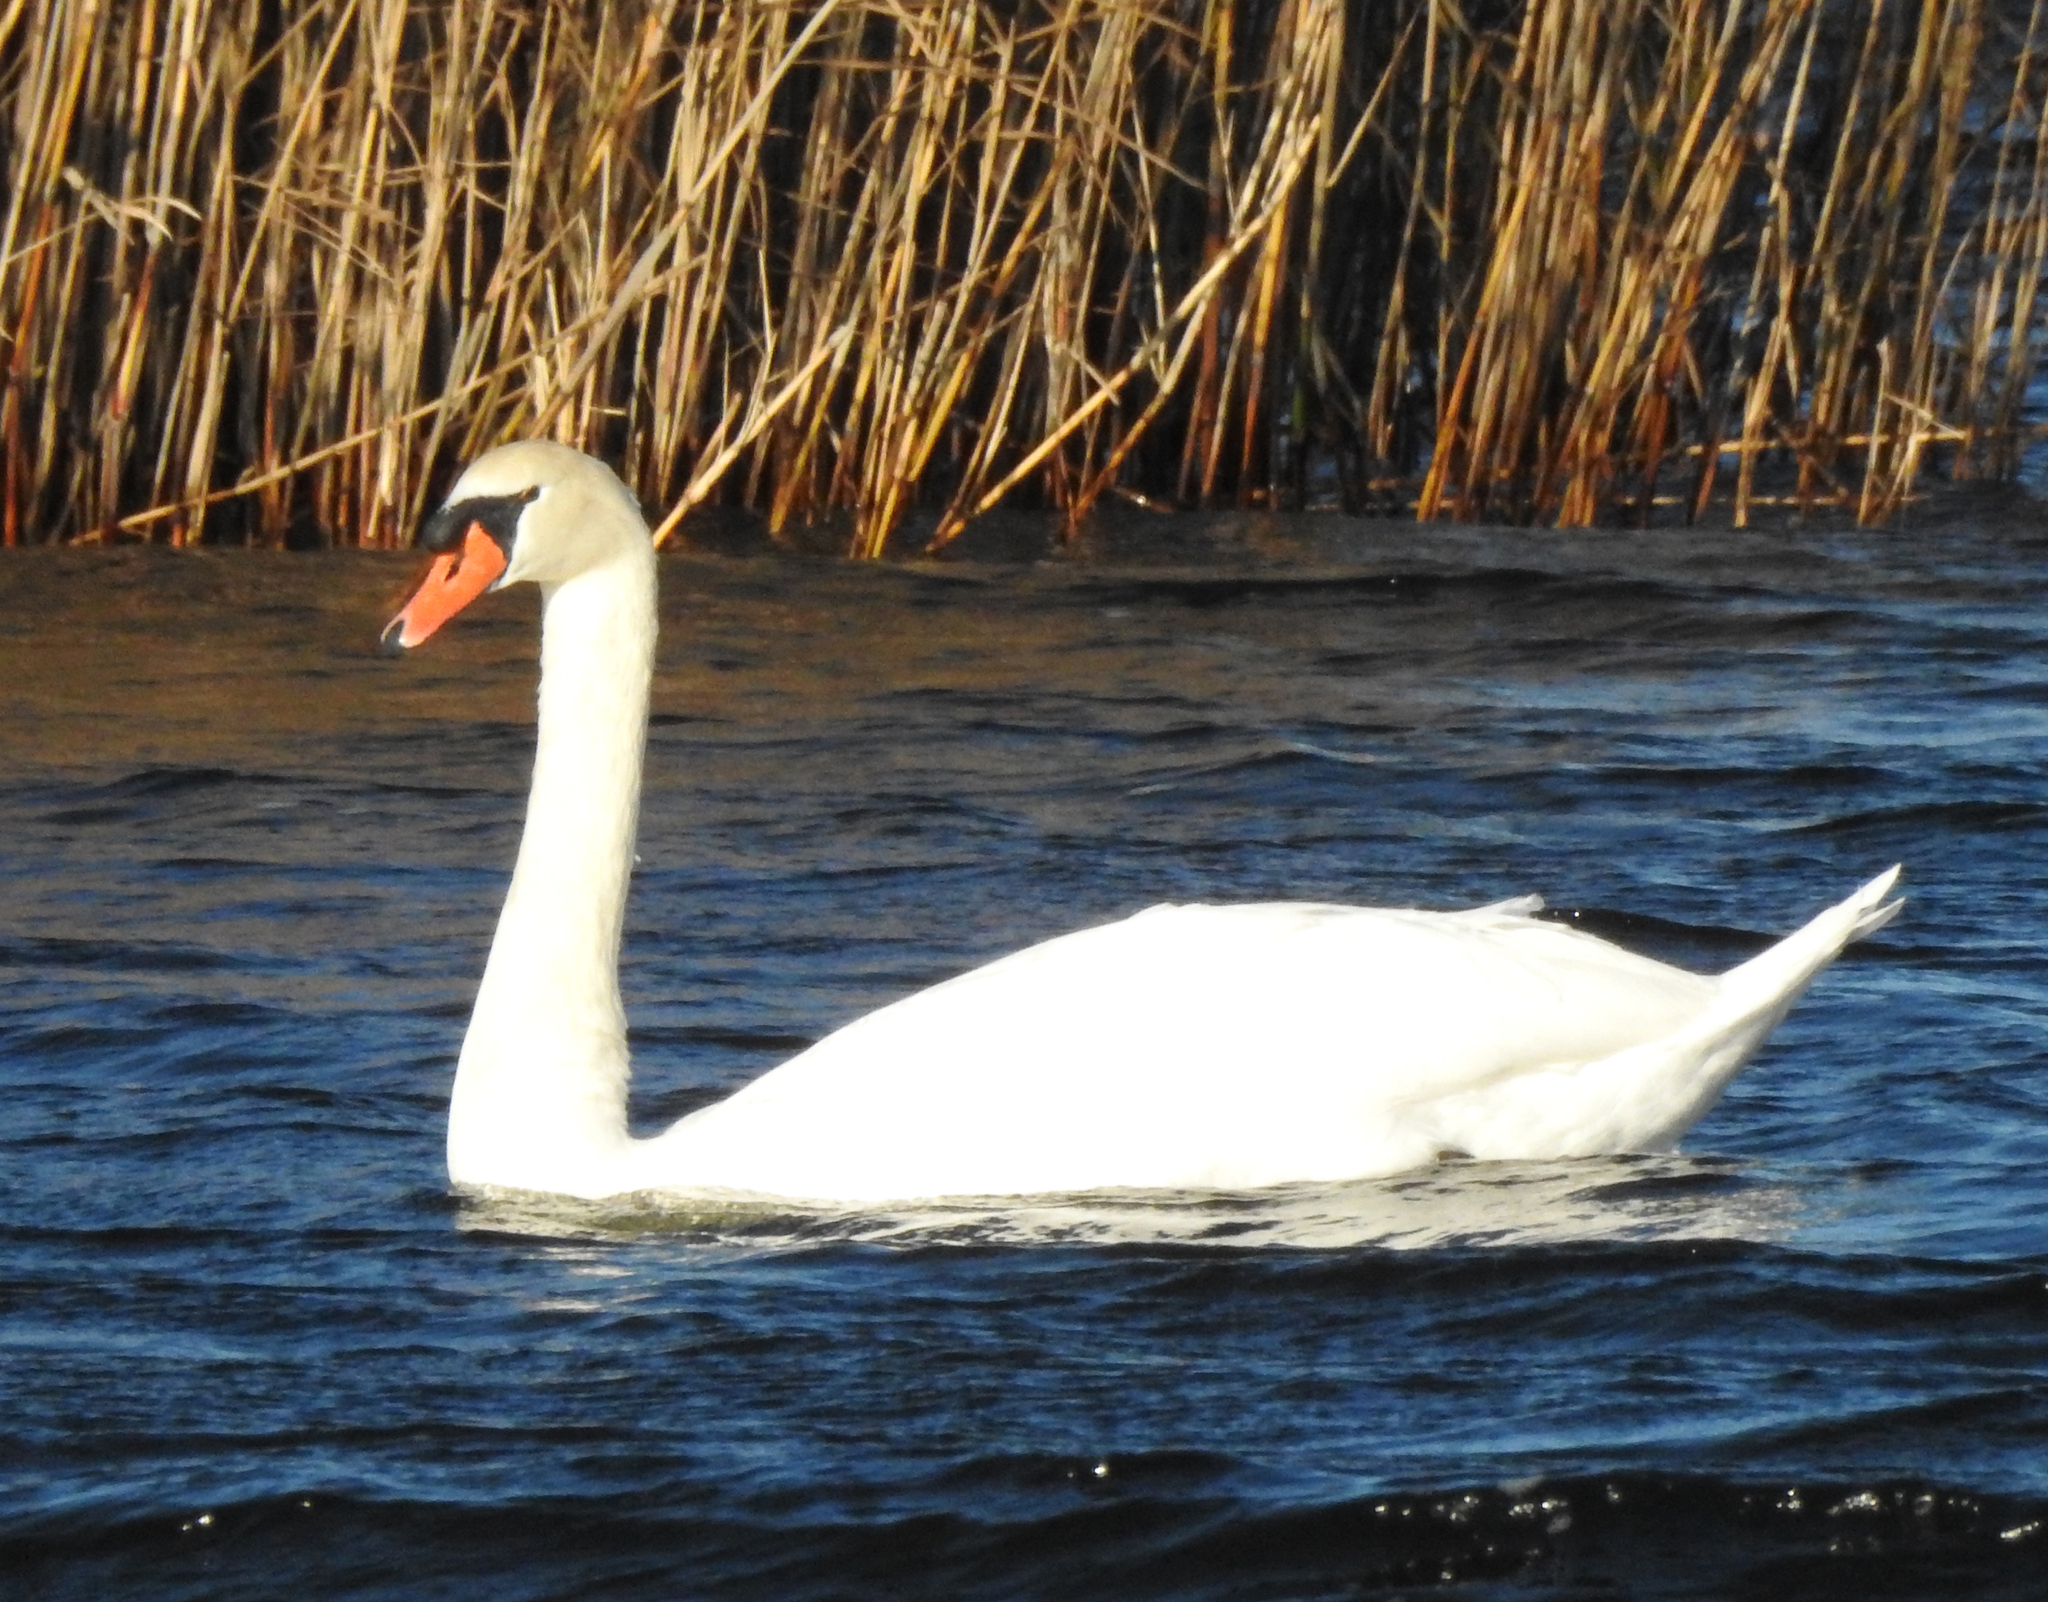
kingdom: Animalia
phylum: Chordata
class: Aves
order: Anseriformes
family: Anatidae
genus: Cygnus
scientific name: Cygnus olor
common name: Mute swan
